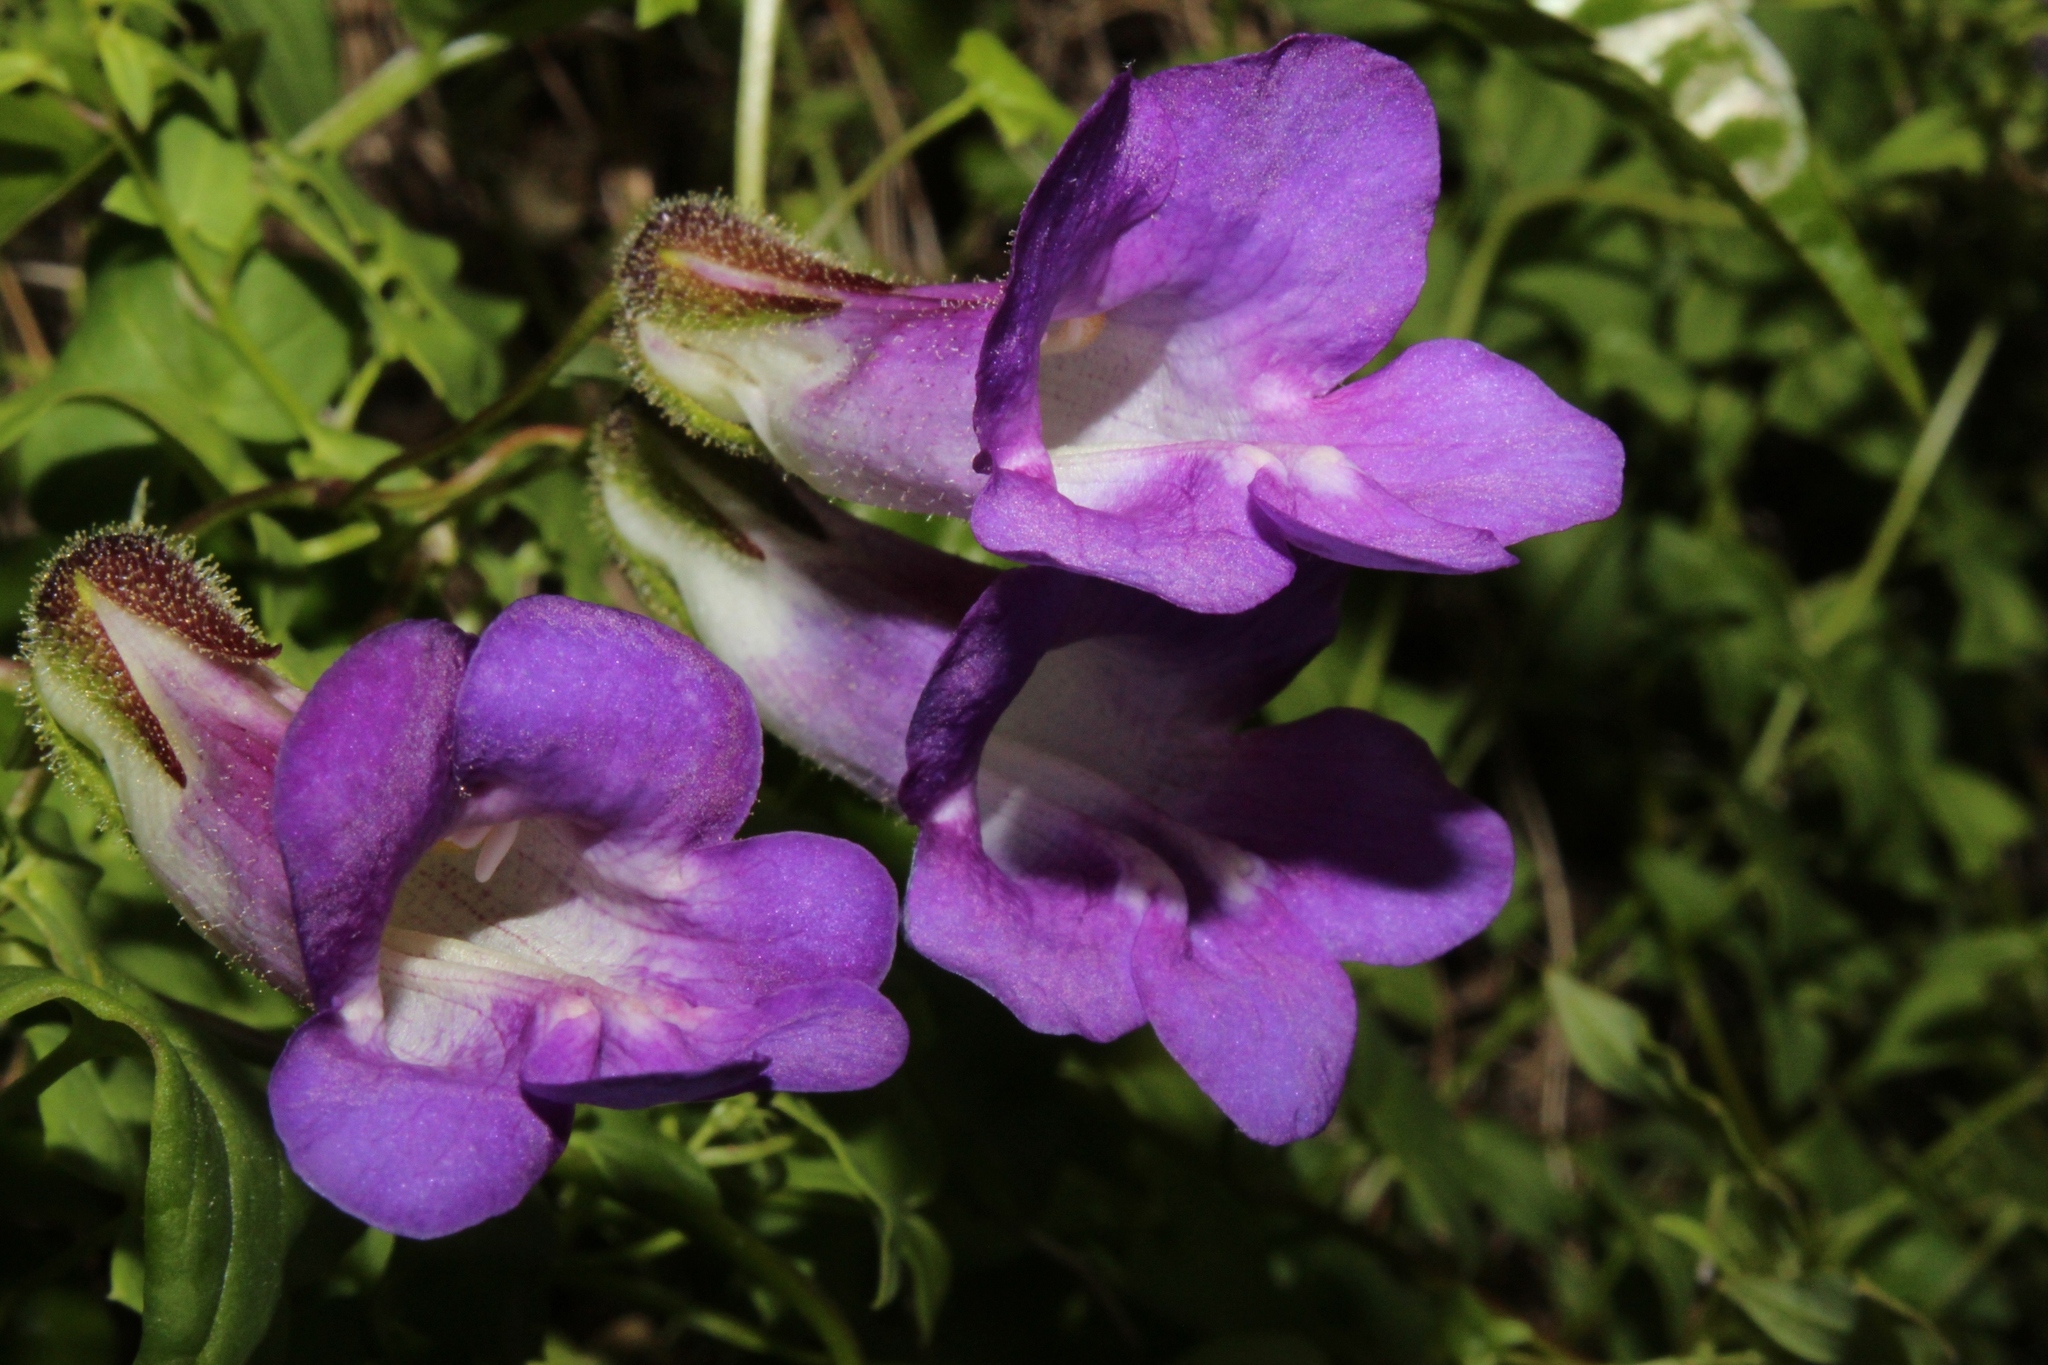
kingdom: Plantae
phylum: Tracheophyta
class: Magnoliopsida
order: Lamiales
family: Plantaginaceae
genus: Maurandya
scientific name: Maurandya barclayana
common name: Mexican viper
